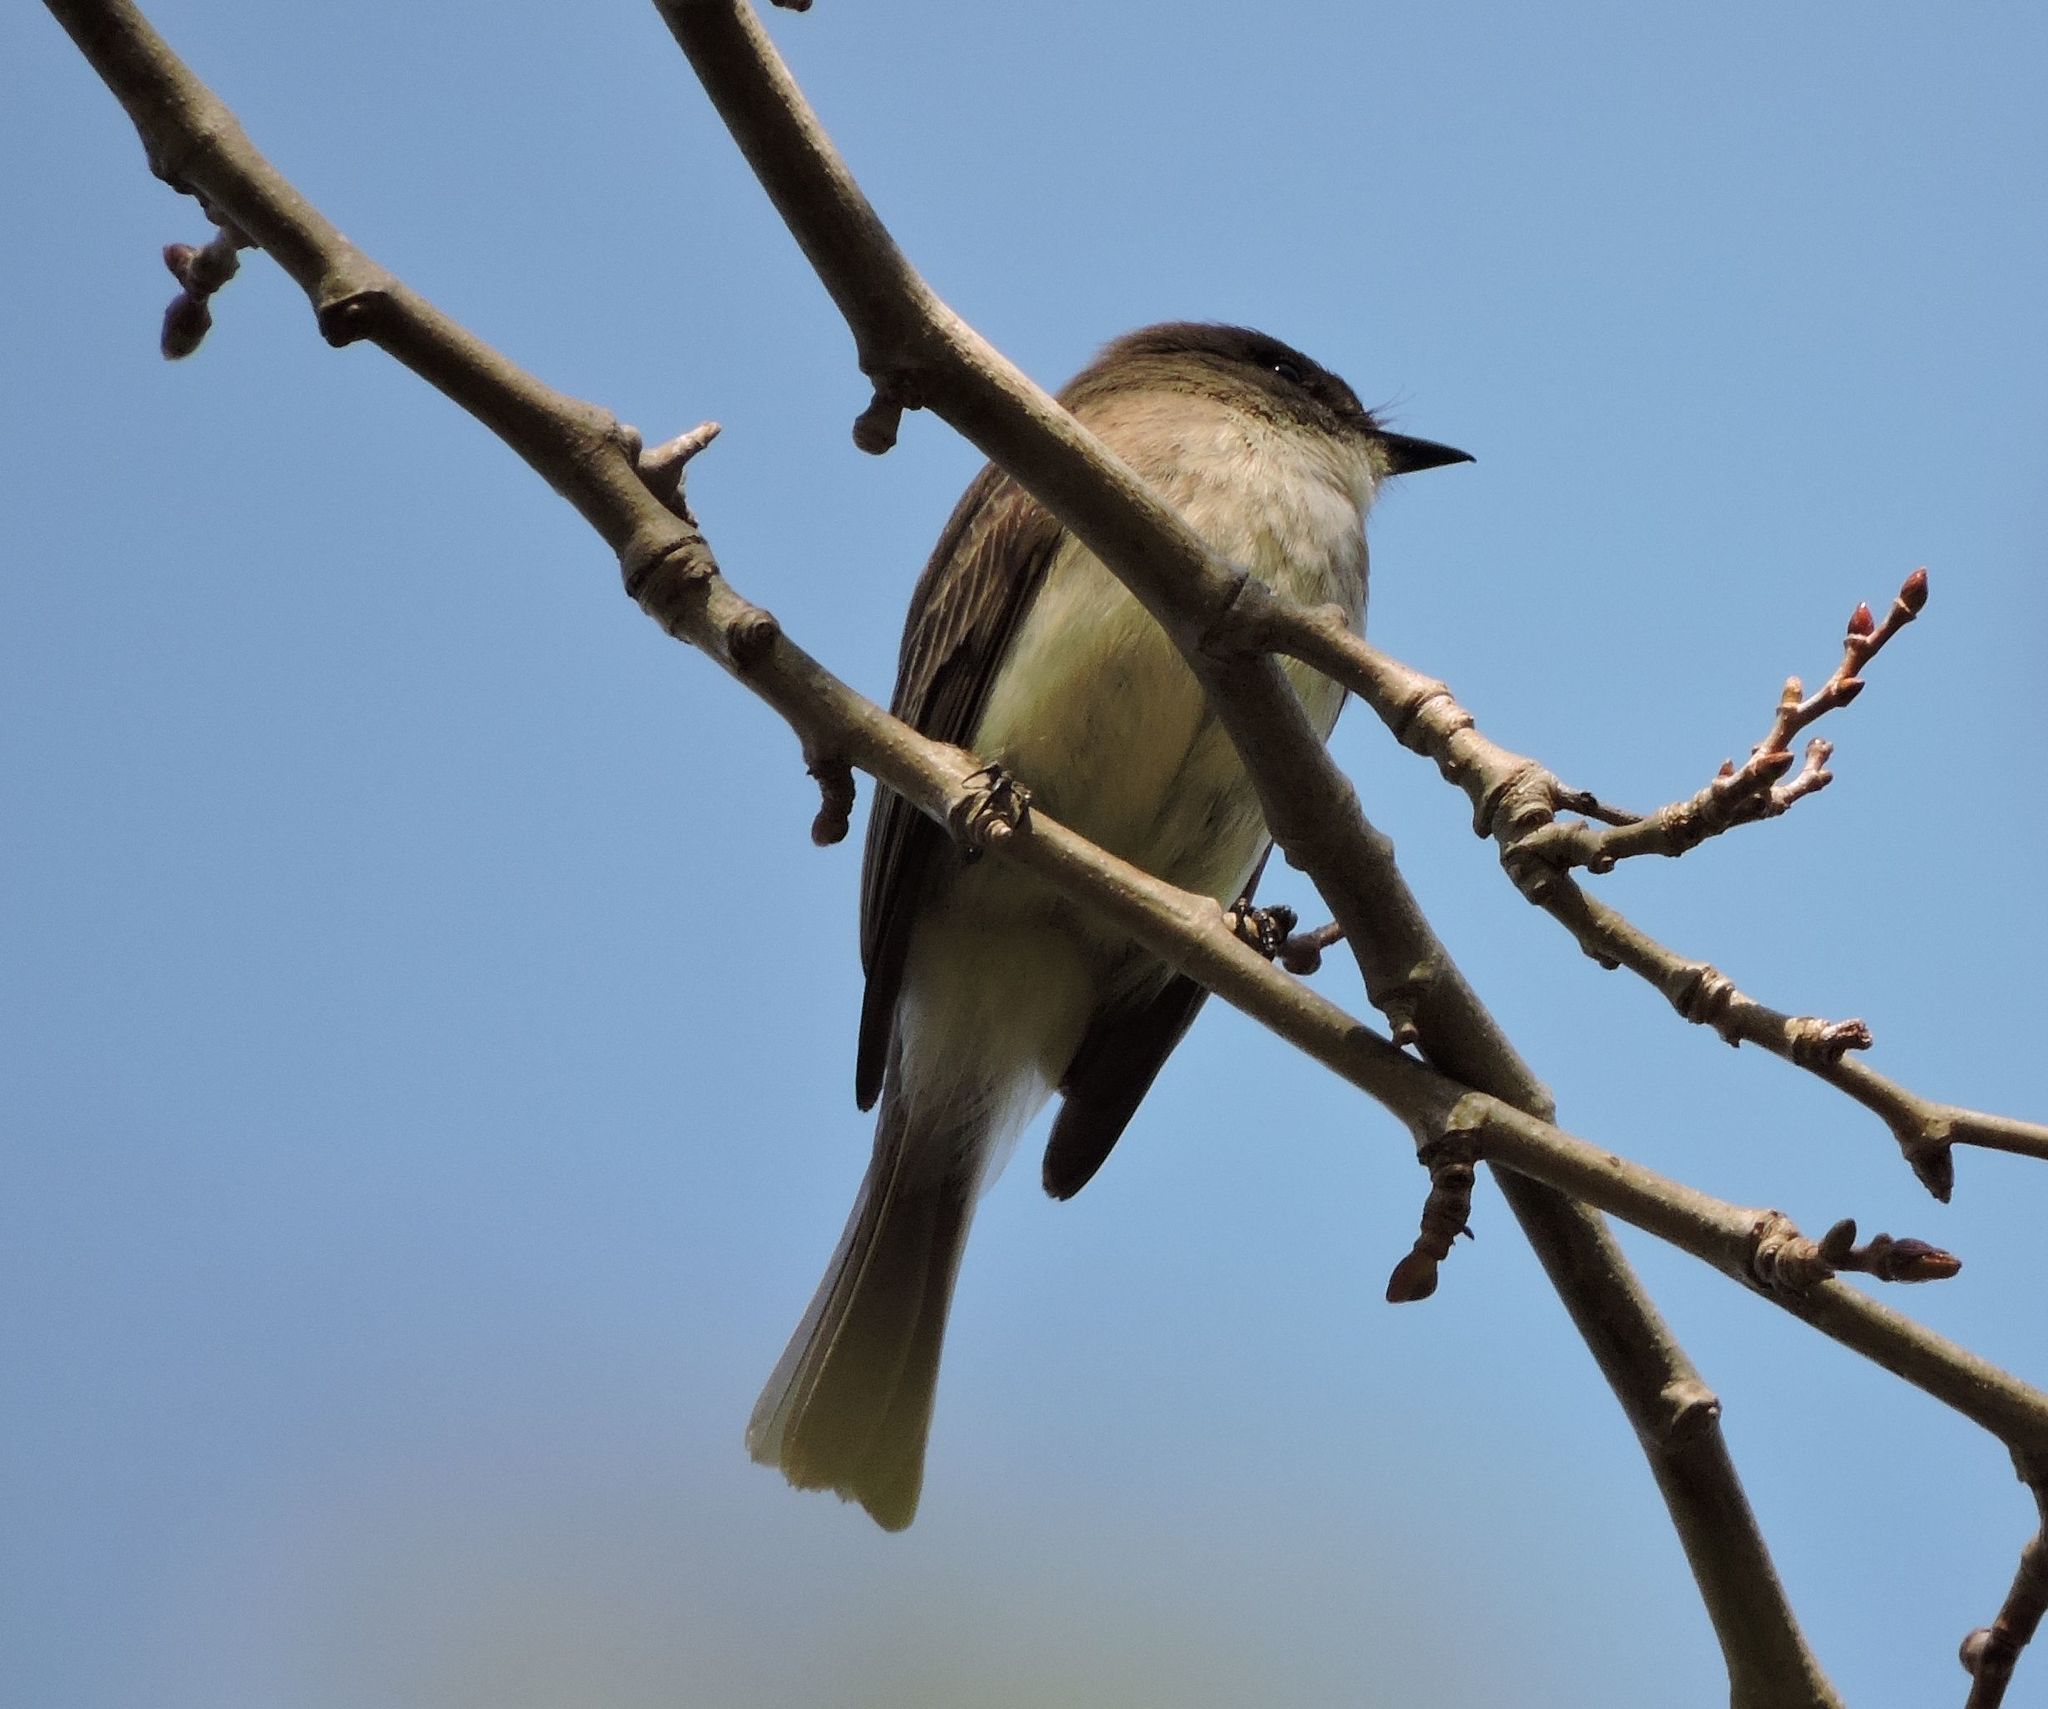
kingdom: Animalia
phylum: Chordata
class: Aves
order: Passeriformes
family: Tyrannidae
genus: Sayornis
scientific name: Sayornis phoebe
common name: Eastern phoebe
